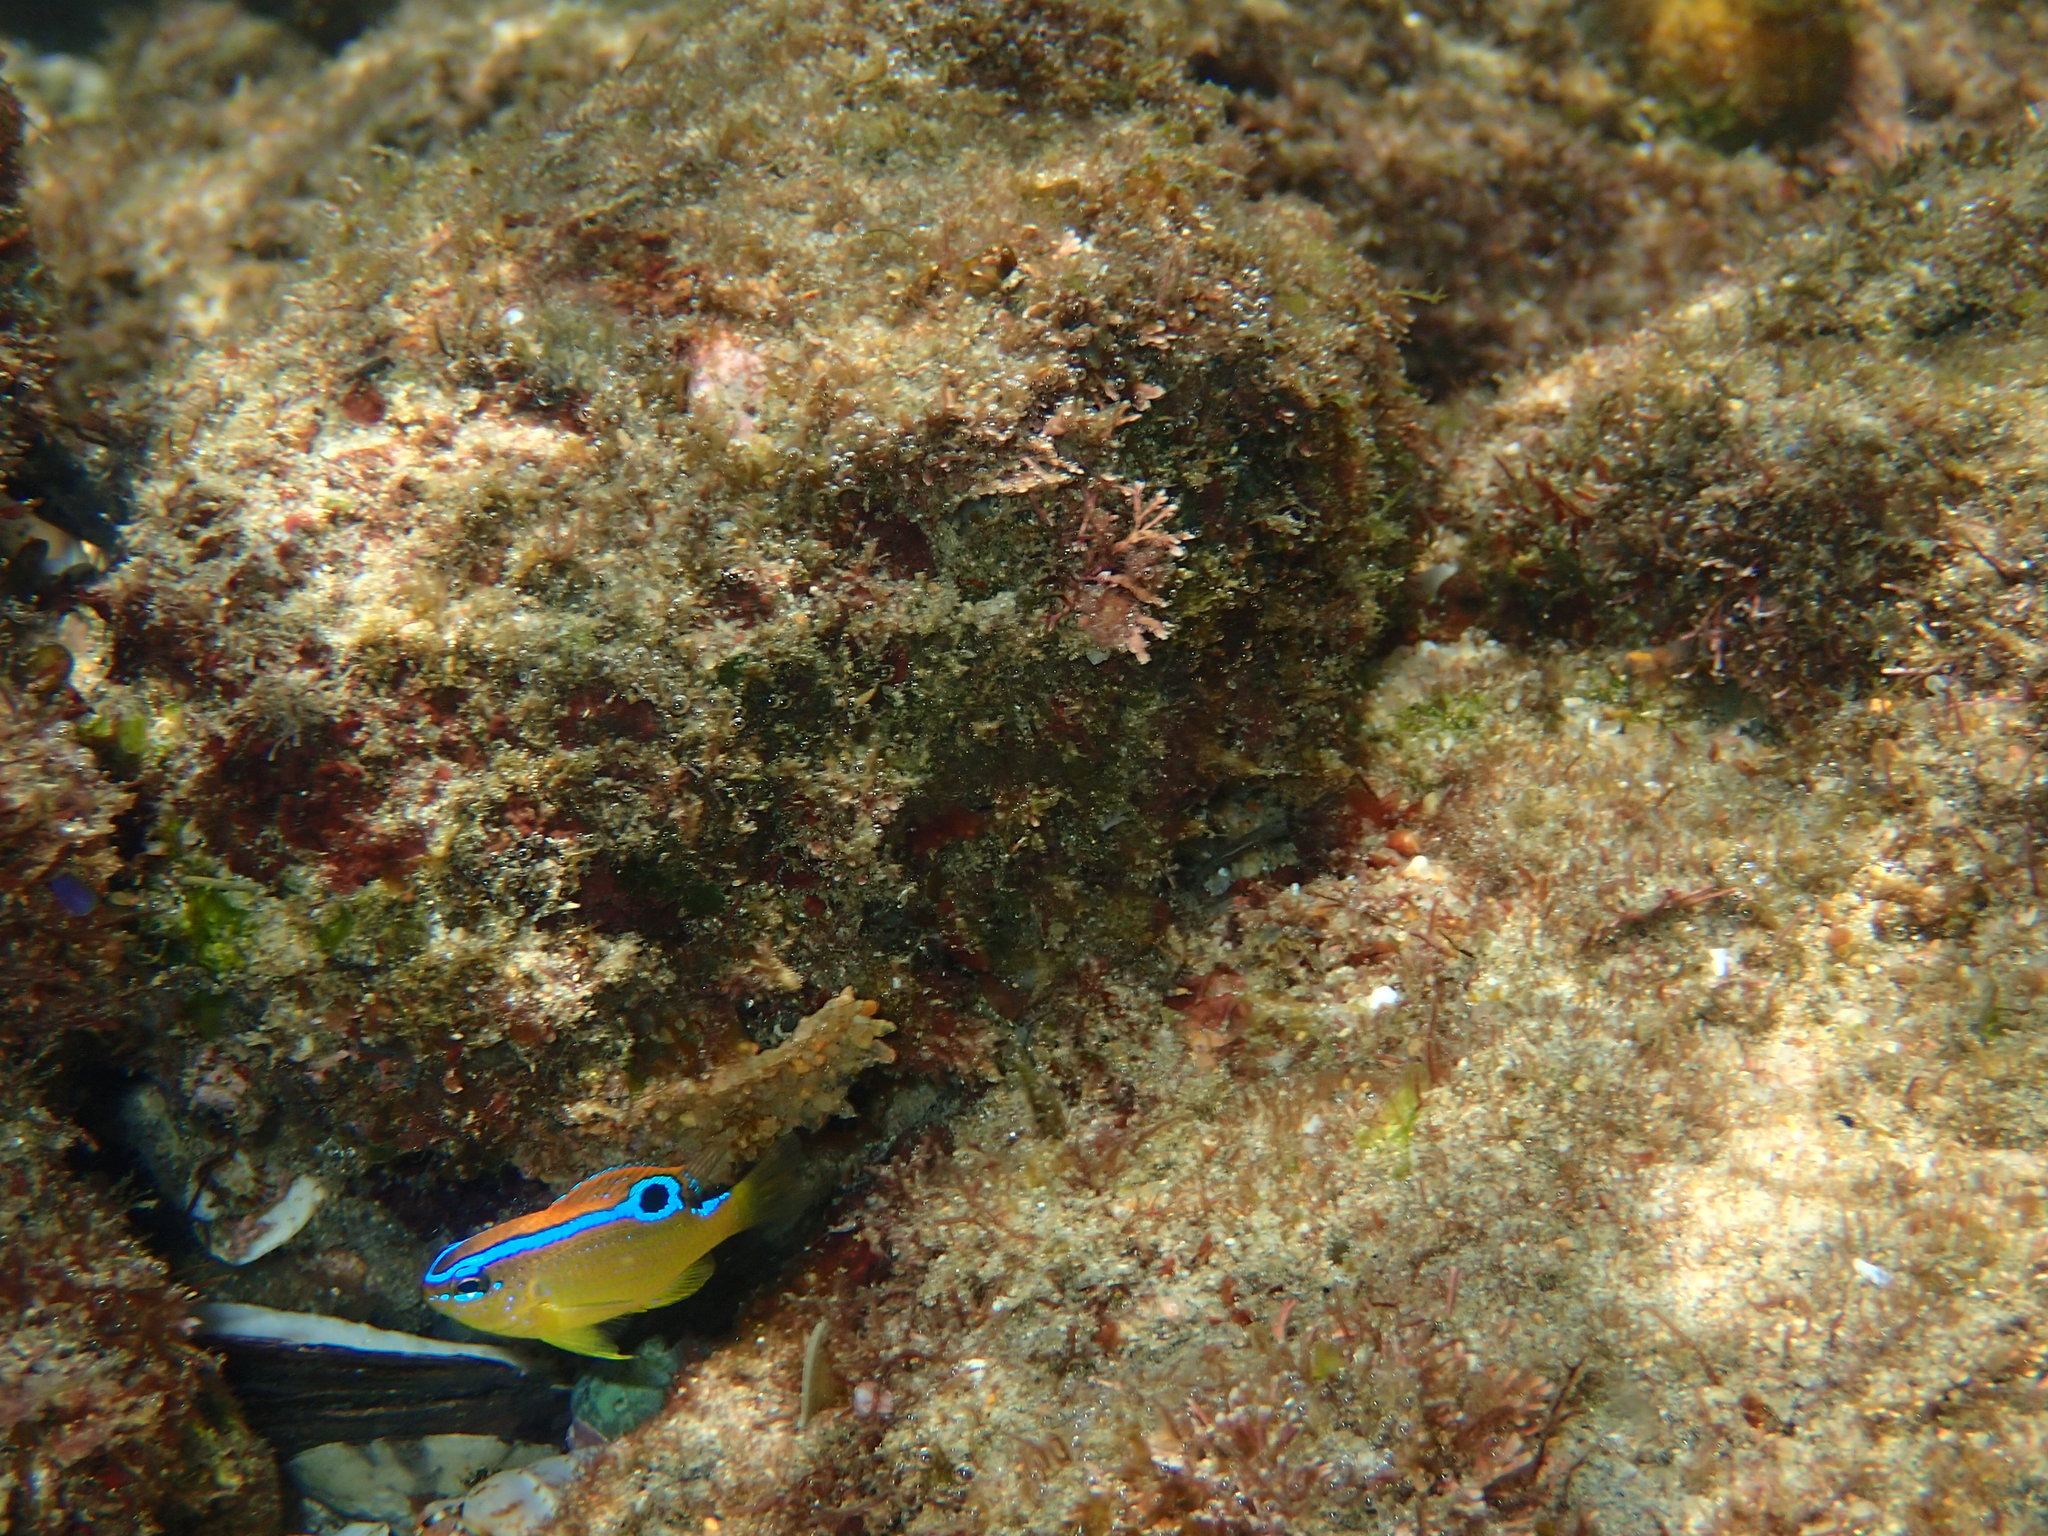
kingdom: Animalia
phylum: Chordata
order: Perciformes
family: Pomacentridae
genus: Chrysiptera
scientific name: Chrysiptera unimaculata
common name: Onespot demoiselle
